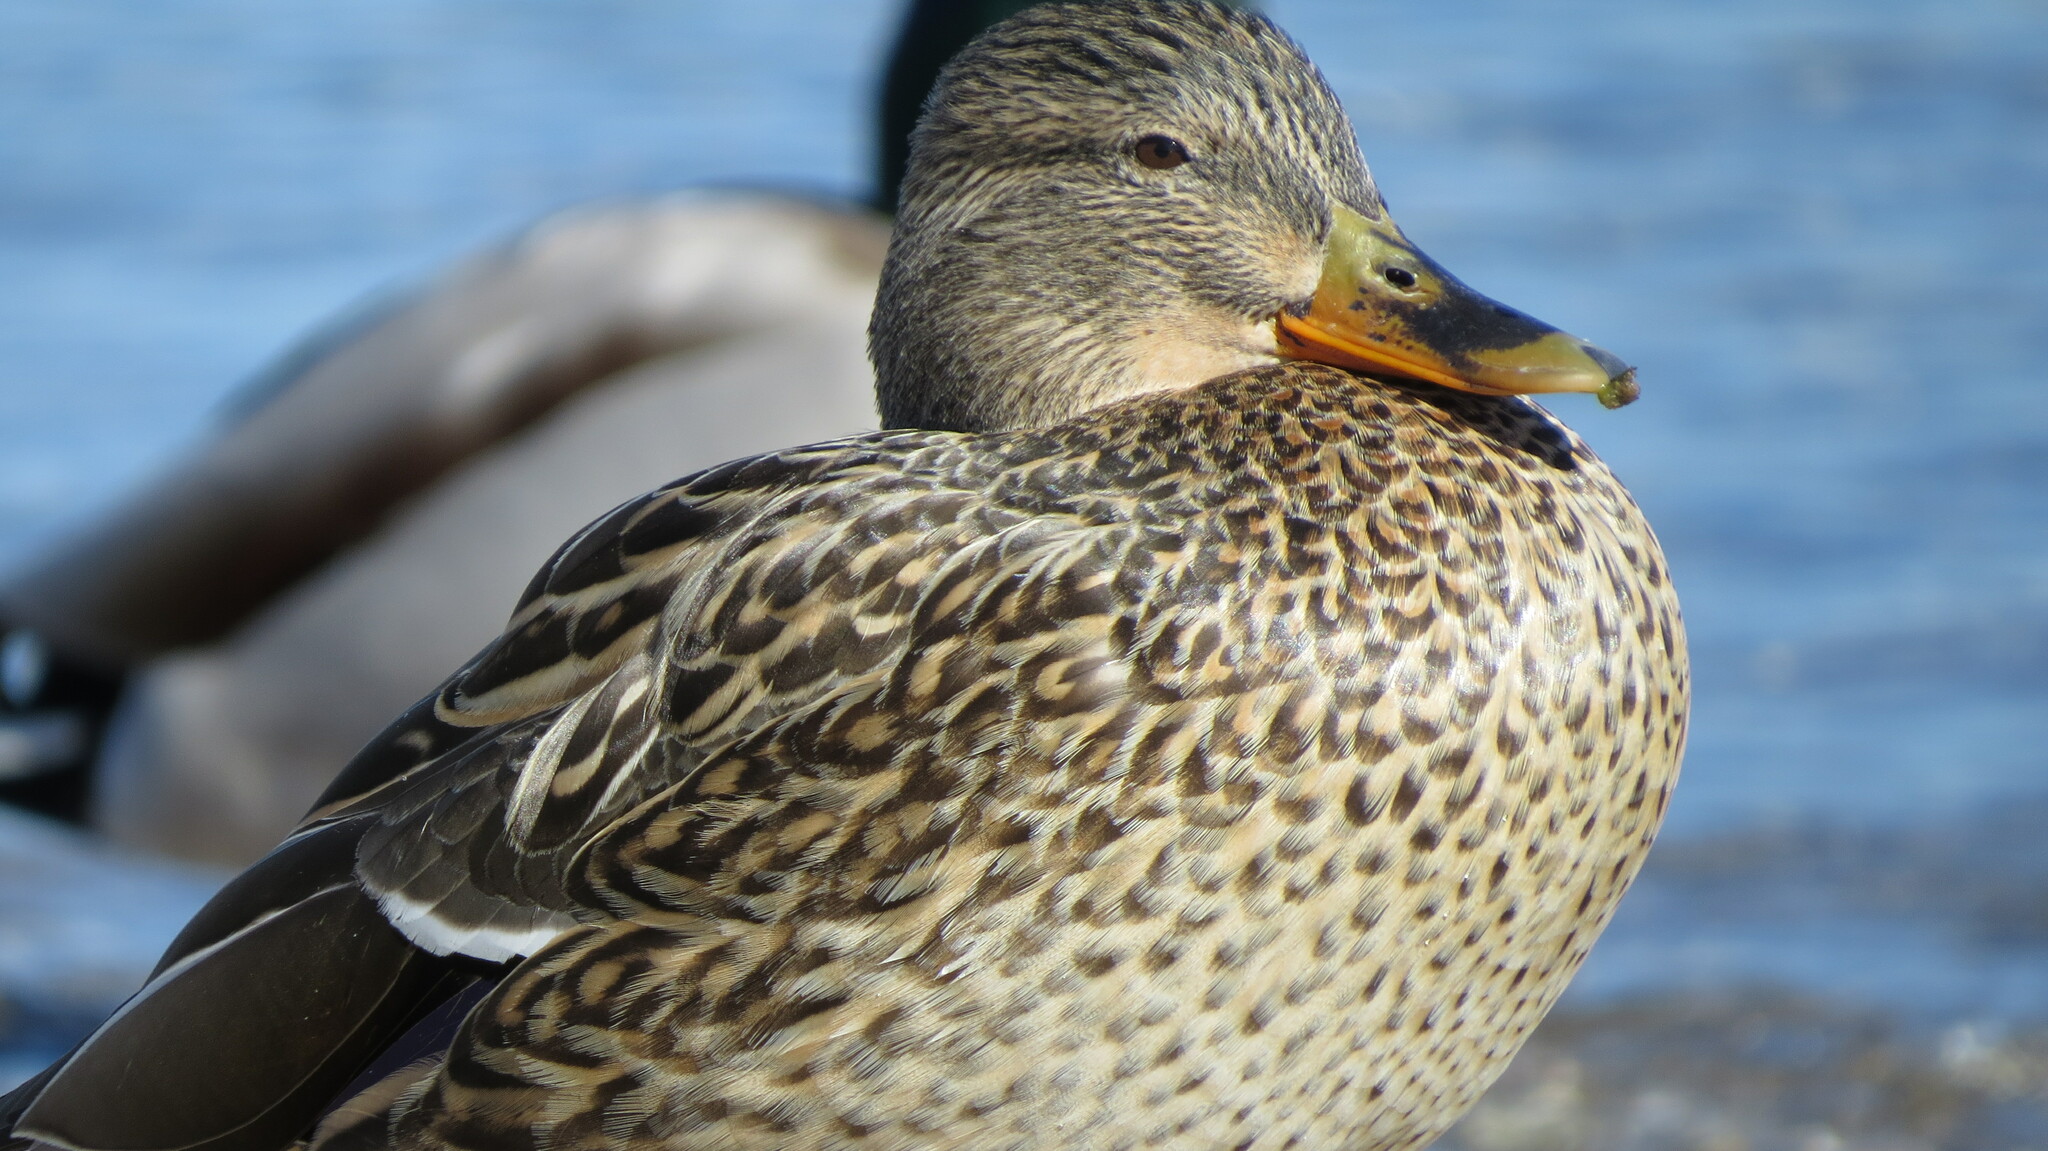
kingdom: Animalia
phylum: Chordata
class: Aves
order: Anseriformes
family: Anatidae
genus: Anas
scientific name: Anas platyrhynchos
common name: Mallard
